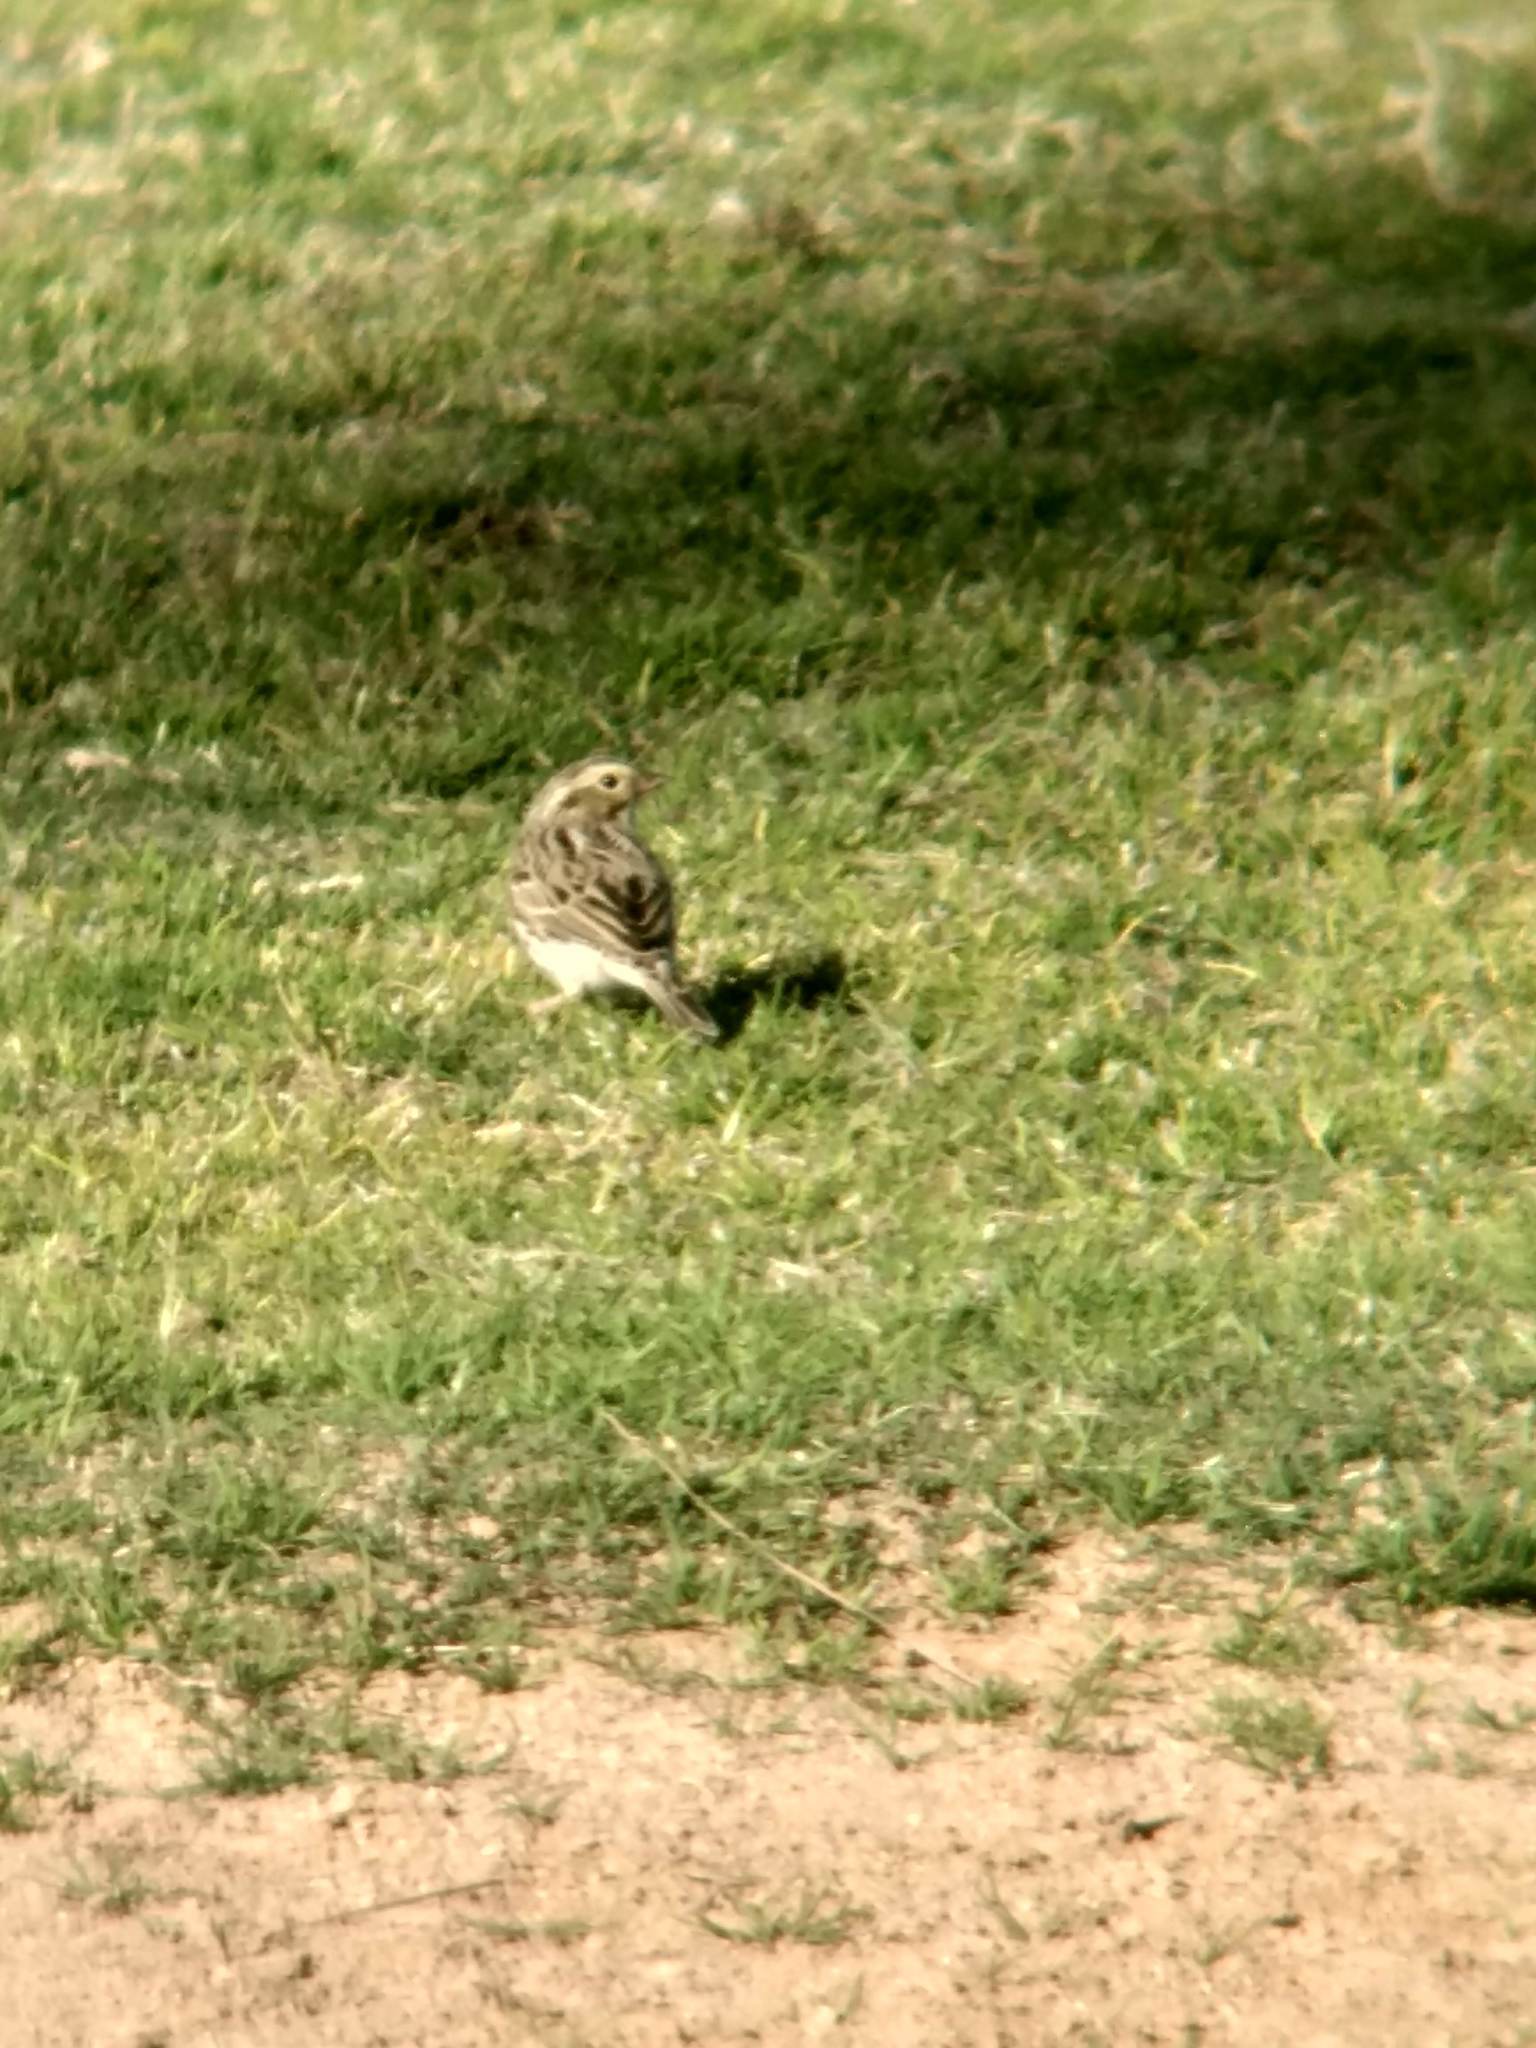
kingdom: Animalia
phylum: Chordata
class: Aves
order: Passeriformes
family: Passerellidae
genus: Passerculus
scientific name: Passerculus sandwichensis
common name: Savannah sparrow
